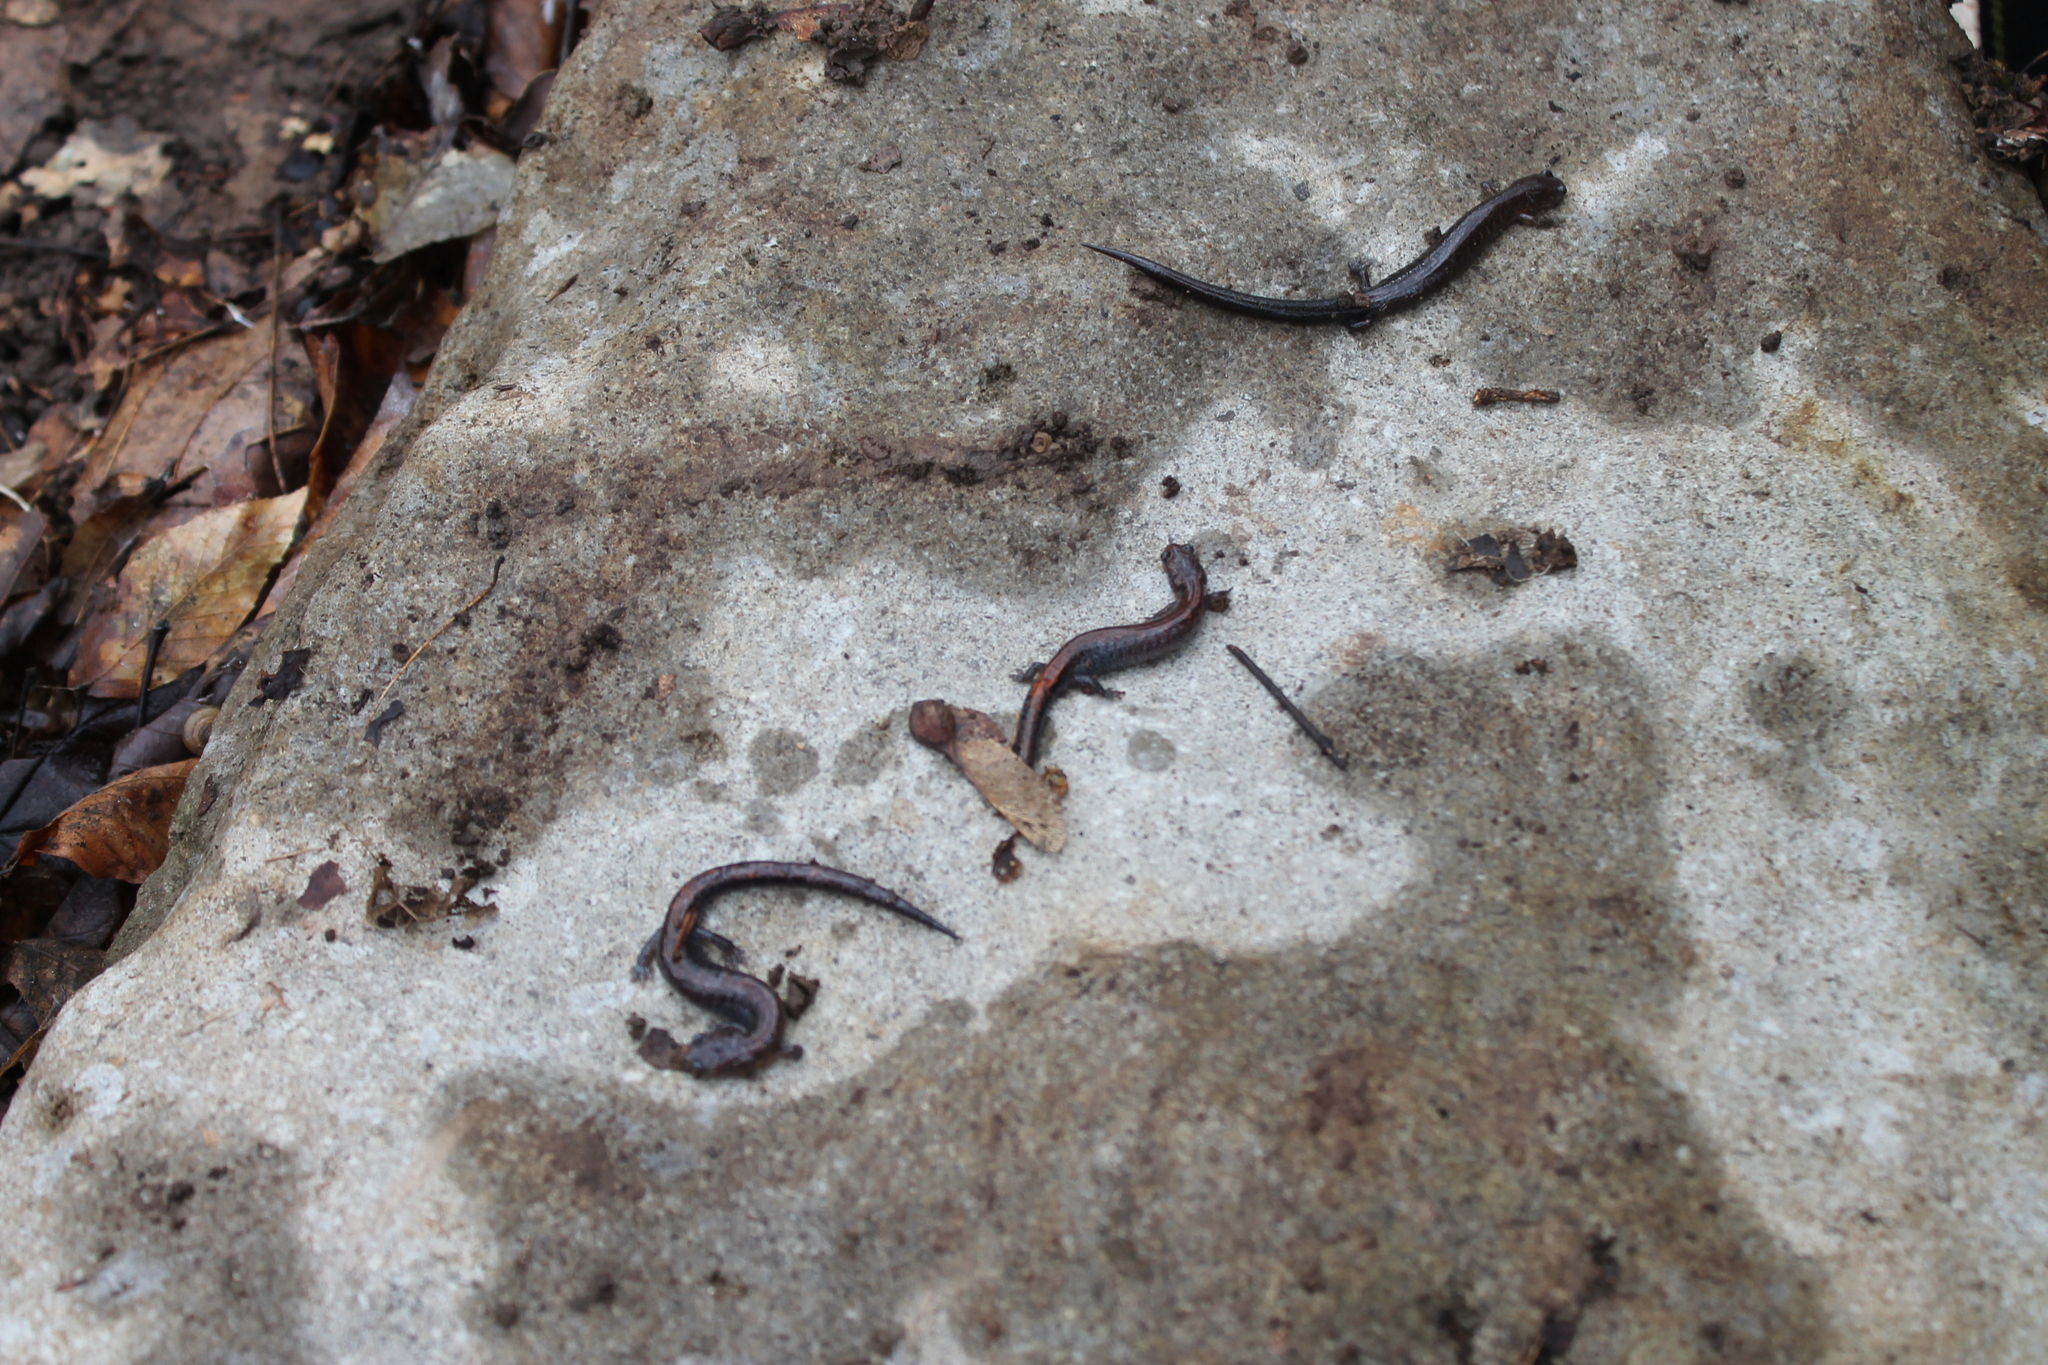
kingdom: Animalia
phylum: Chordata
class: Amphibia
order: Caudata
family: Plethodontidae
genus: Plethodon
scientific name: Plethodon dorsalis
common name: Northern zigzag salamander
